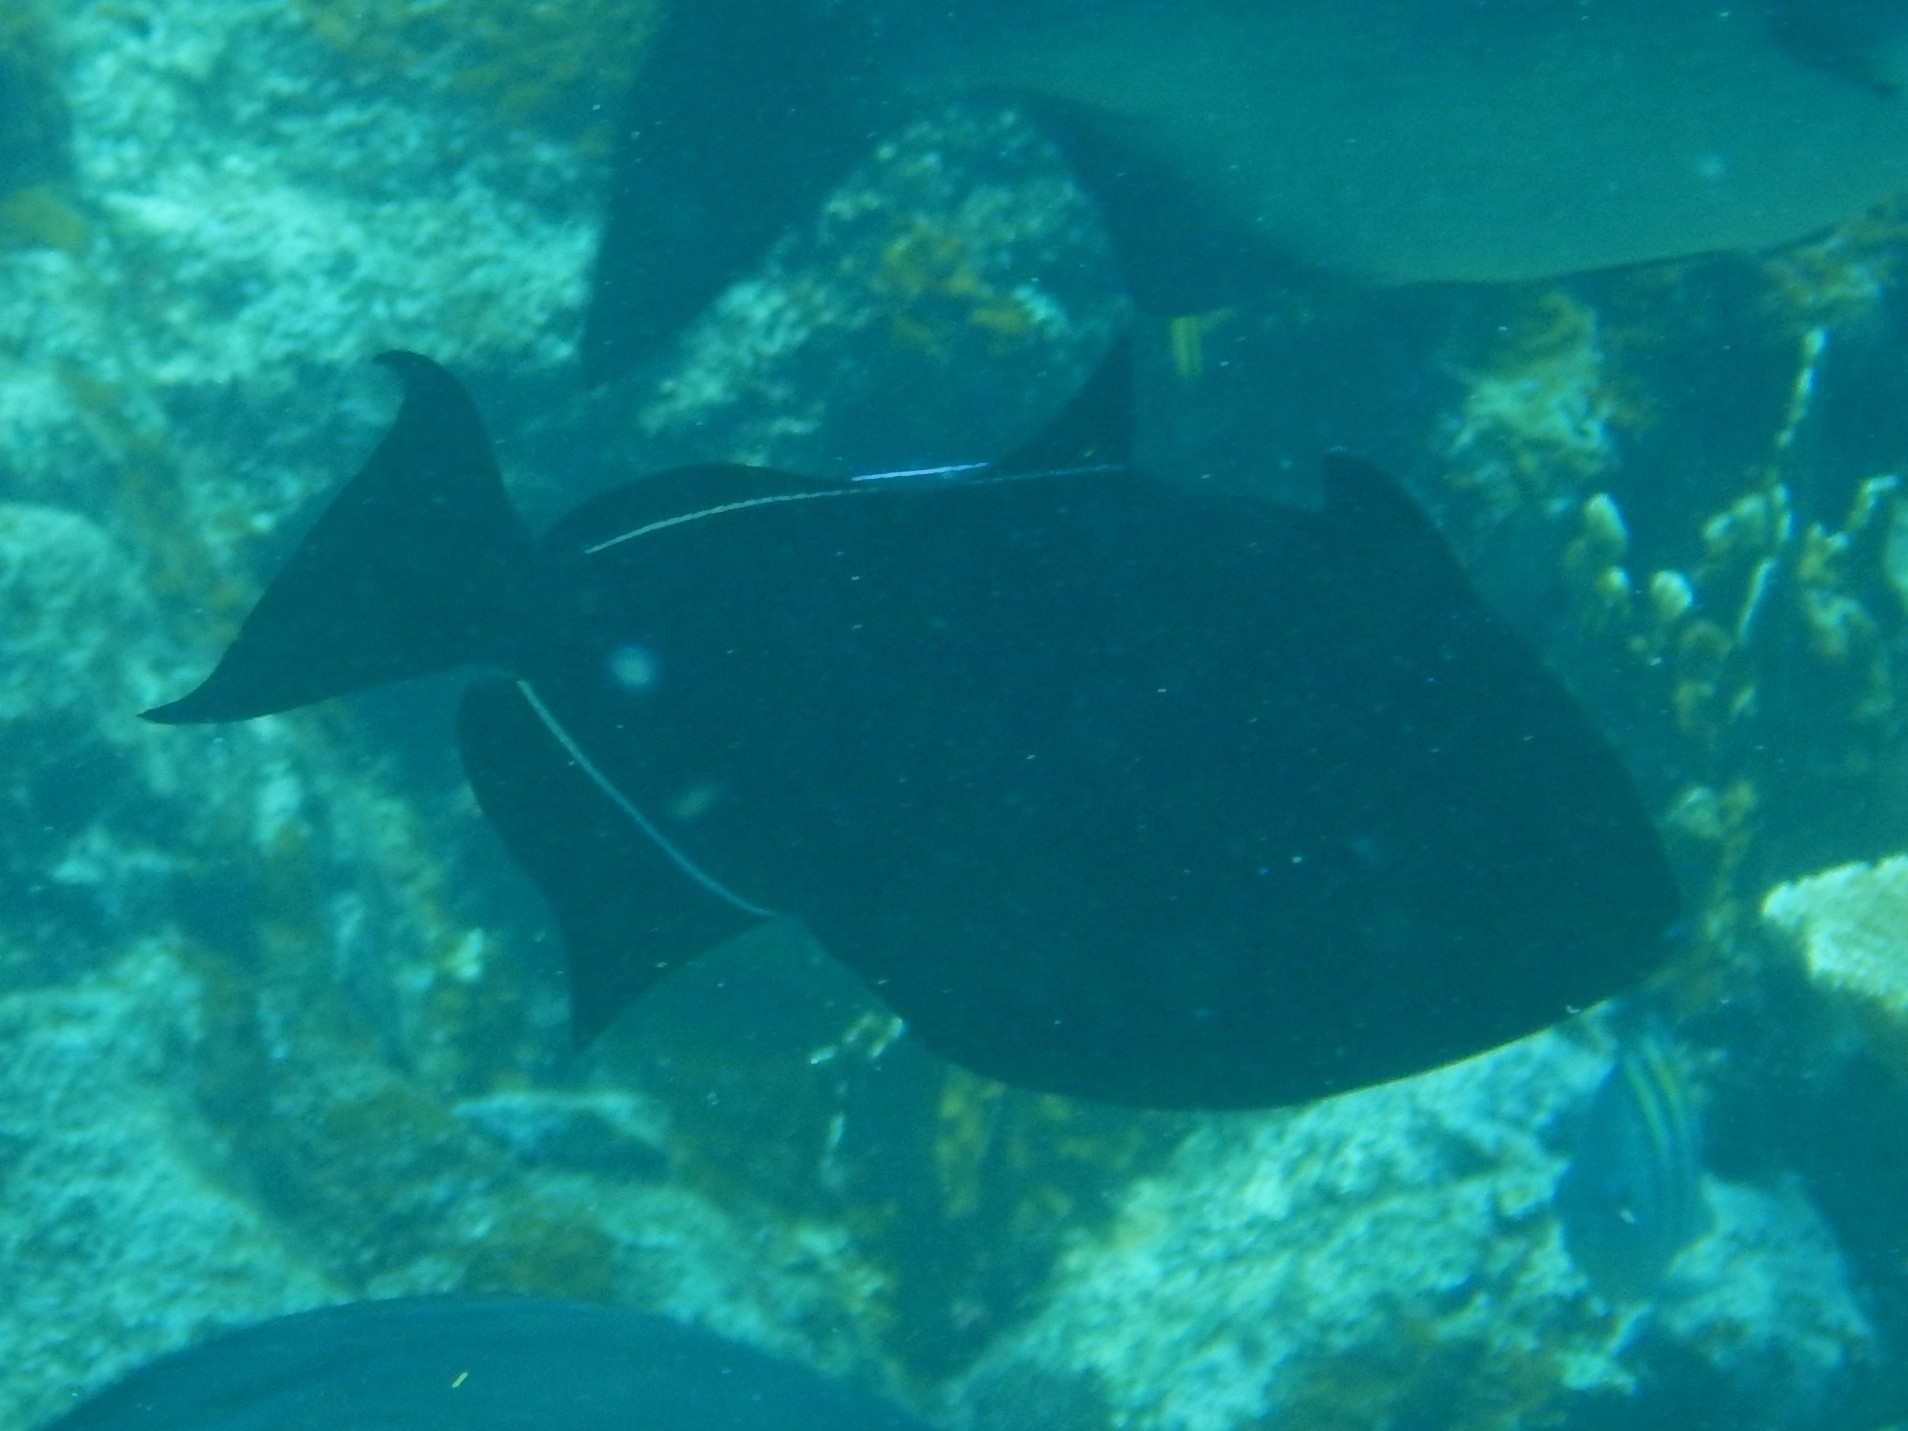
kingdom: Animalia
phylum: Chordata
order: Tetraodontiformes
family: Balistidae
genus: Melichthys
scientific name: Melichthys niger
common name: Black durgon
